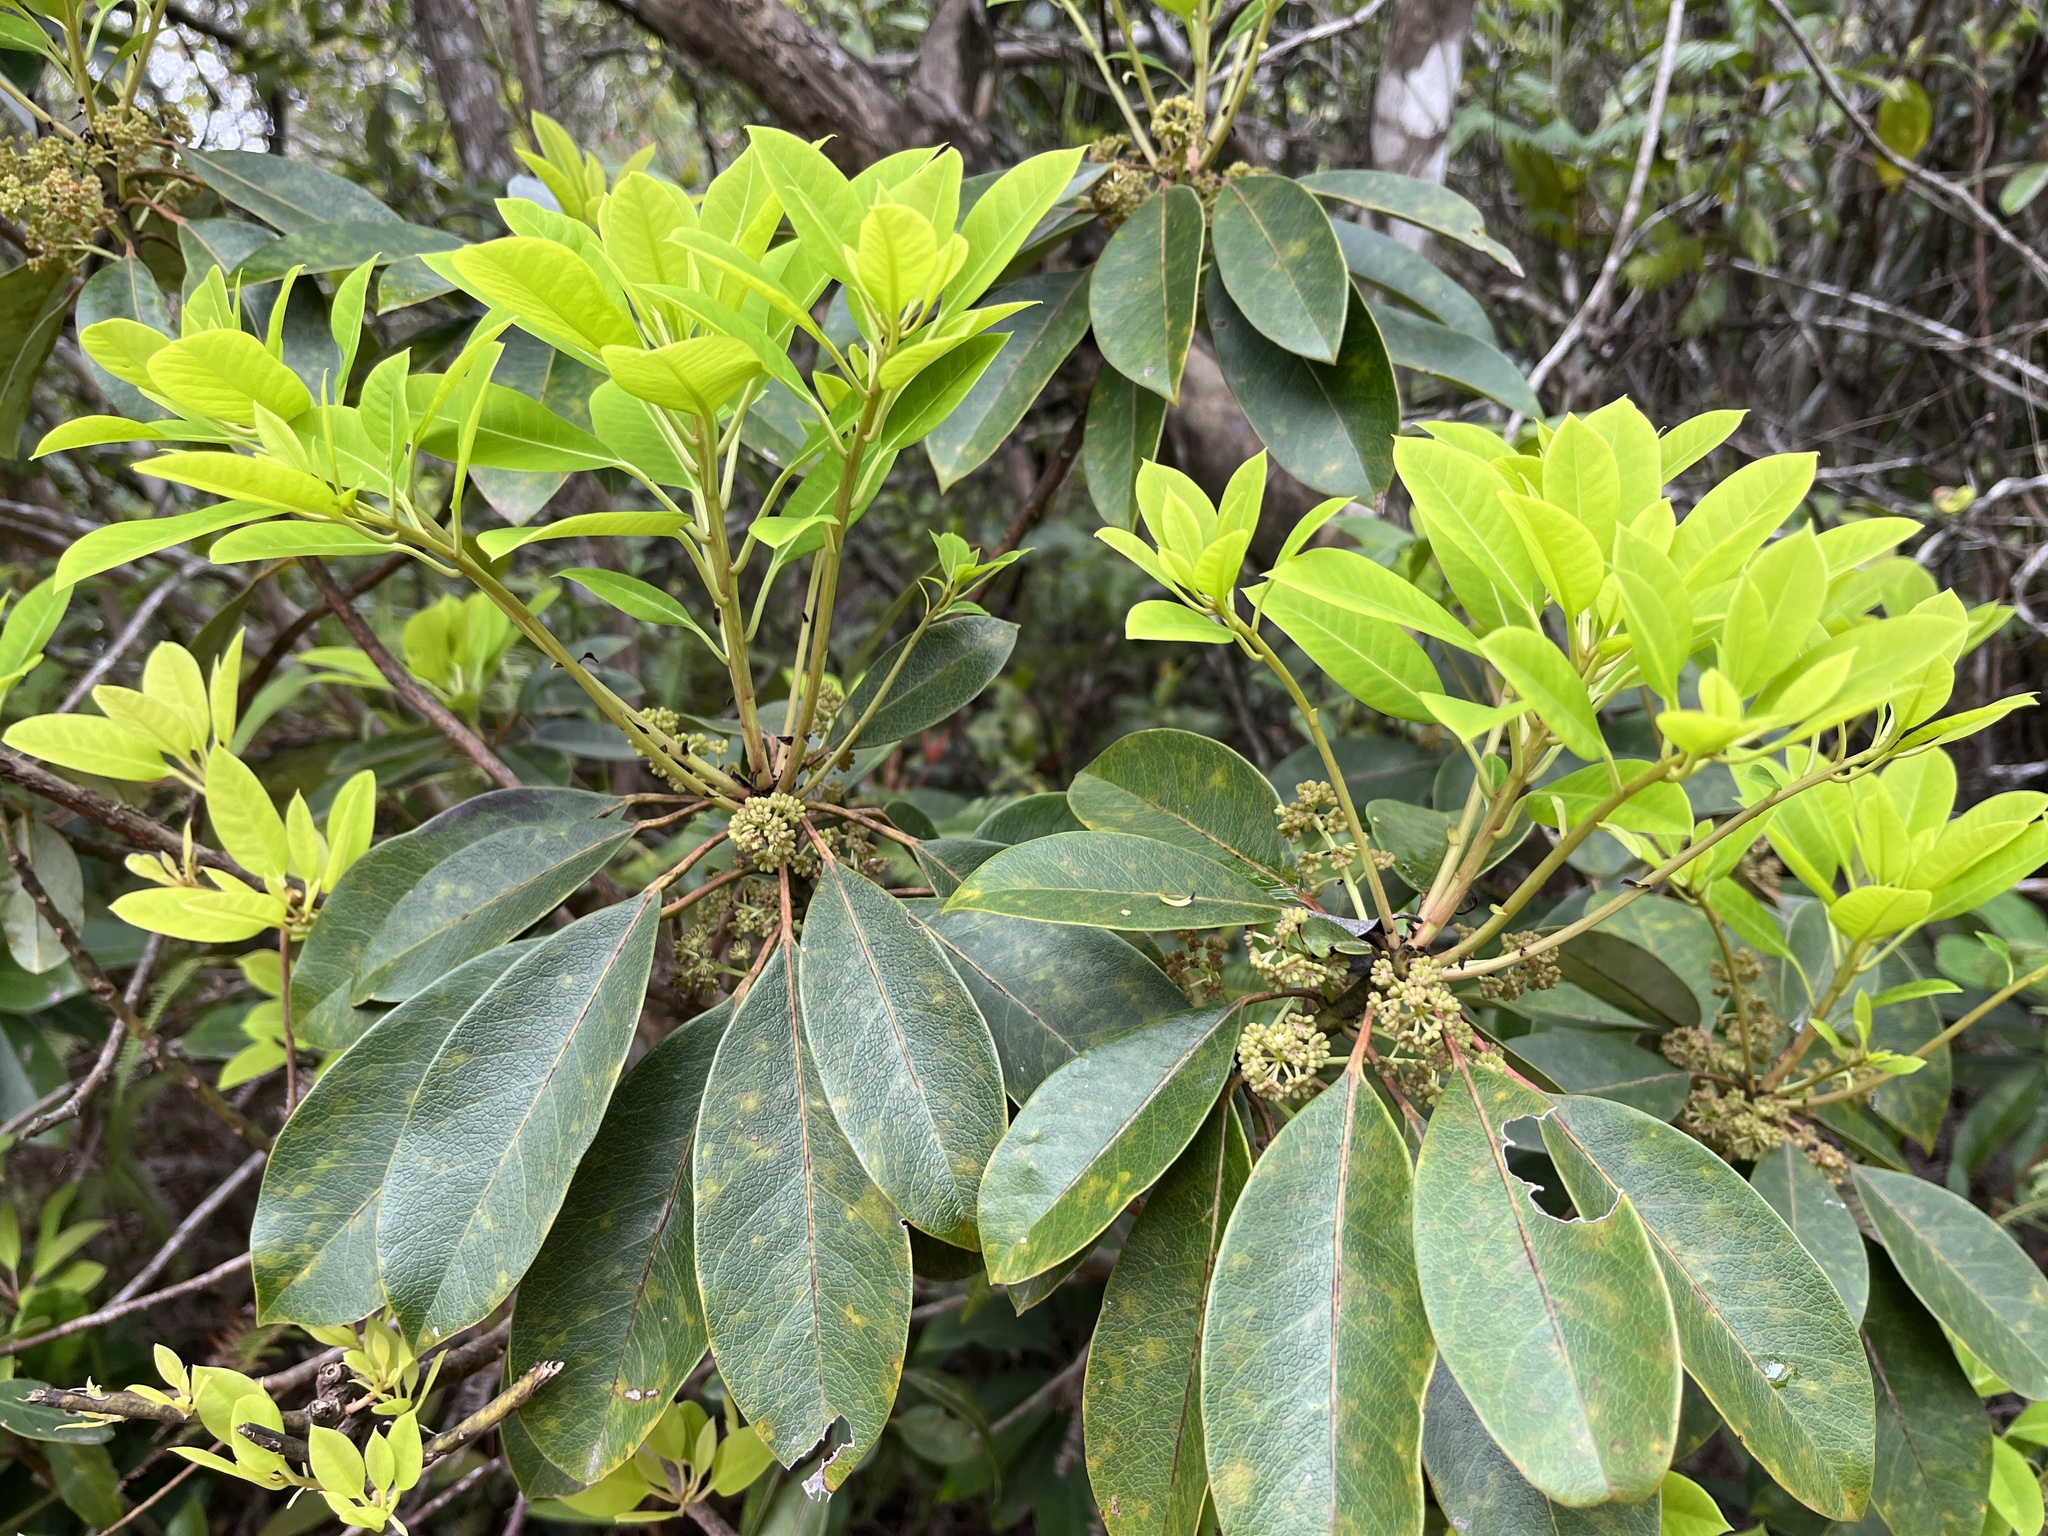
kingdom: Plantae
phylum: Tracheophyta
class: Magnoliopsida
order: Saxifragales
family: Daphniphyllaceae
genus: Daphniphyllum
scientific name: Daphniphyllum pentandrum
